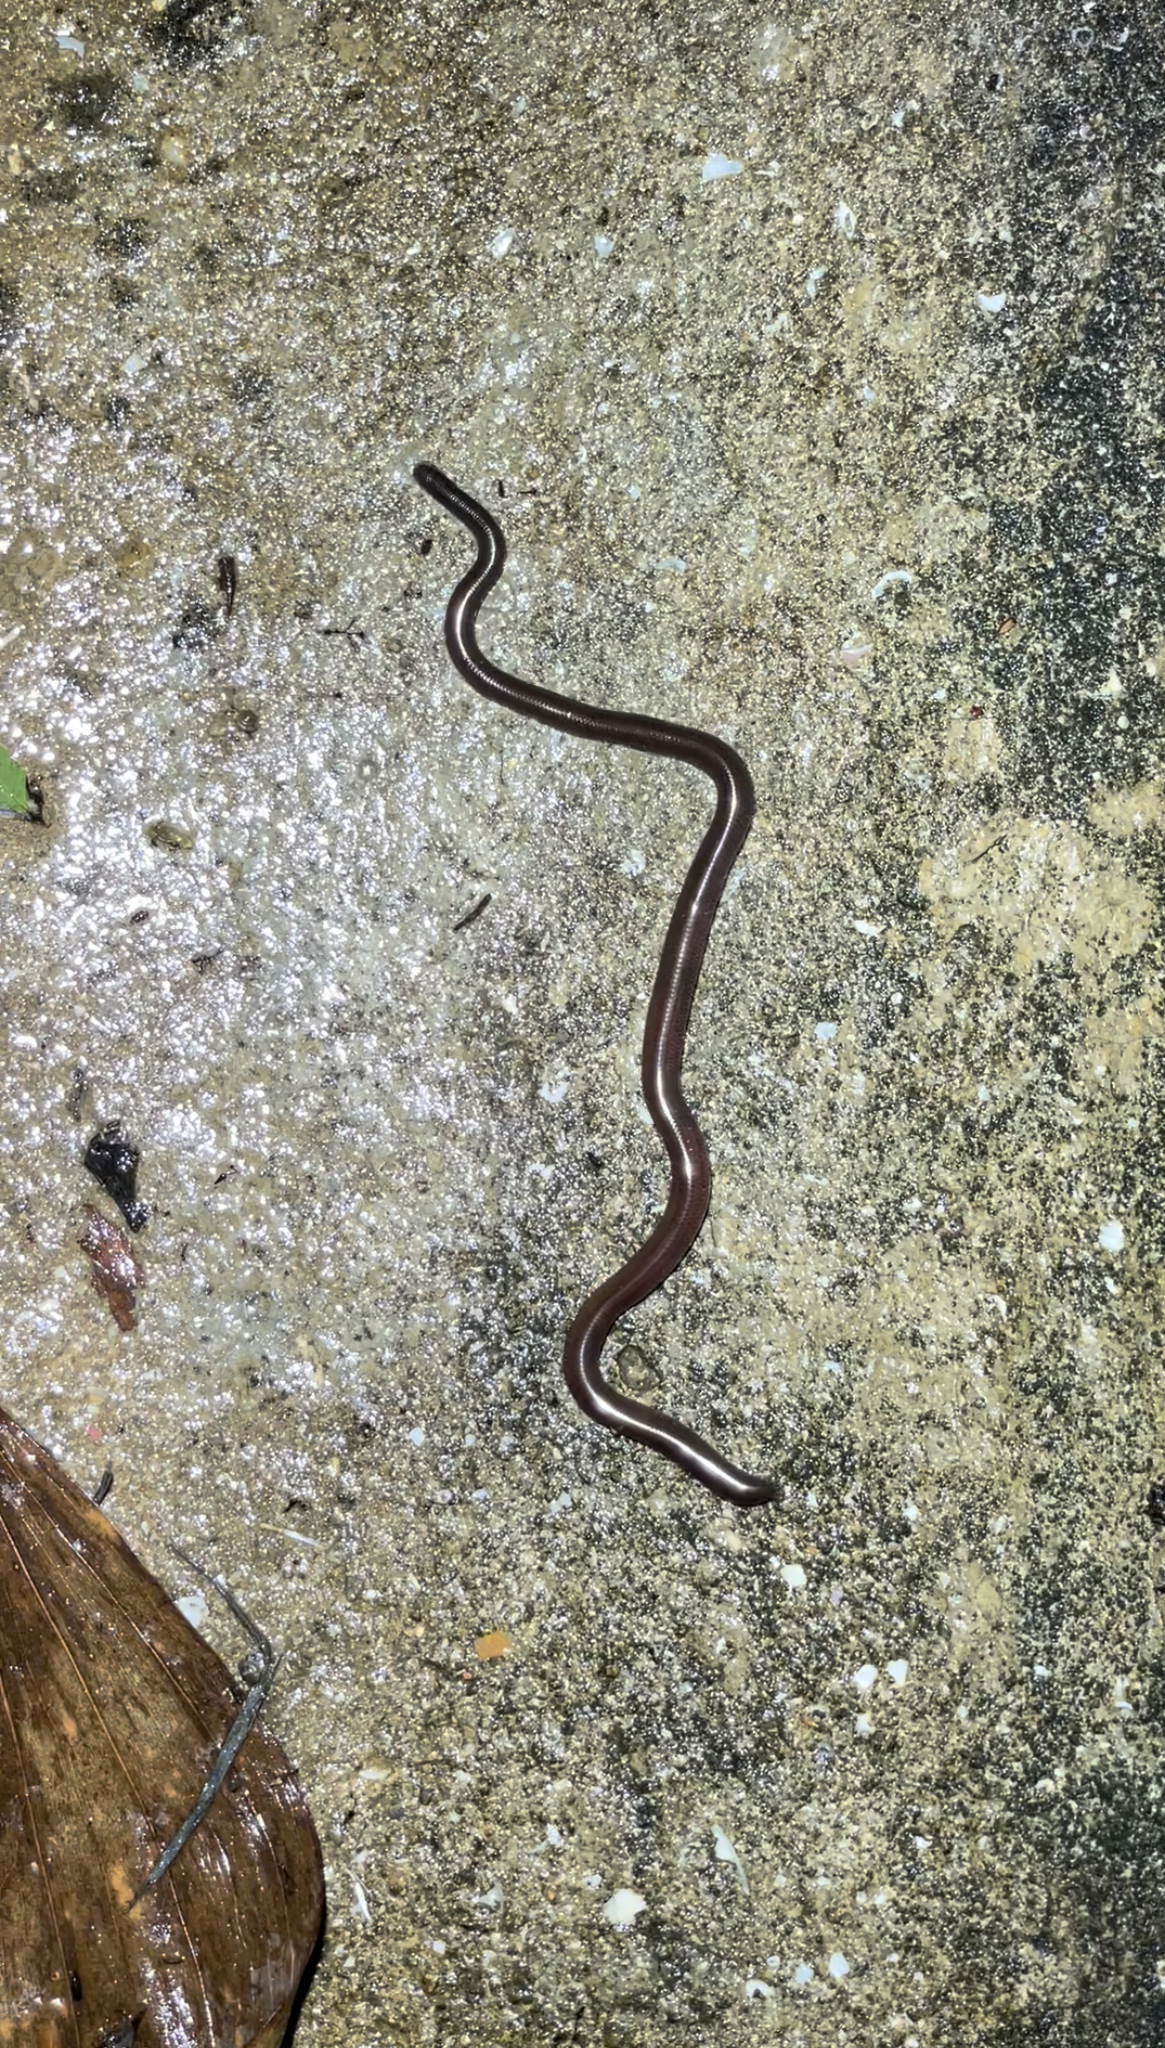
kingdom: Animalia
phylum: Chordata
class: Squamata
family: Typhlopidae
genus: Indotyphlops
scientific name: Indotyphlops braminus
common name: Brahminy blindsnake
